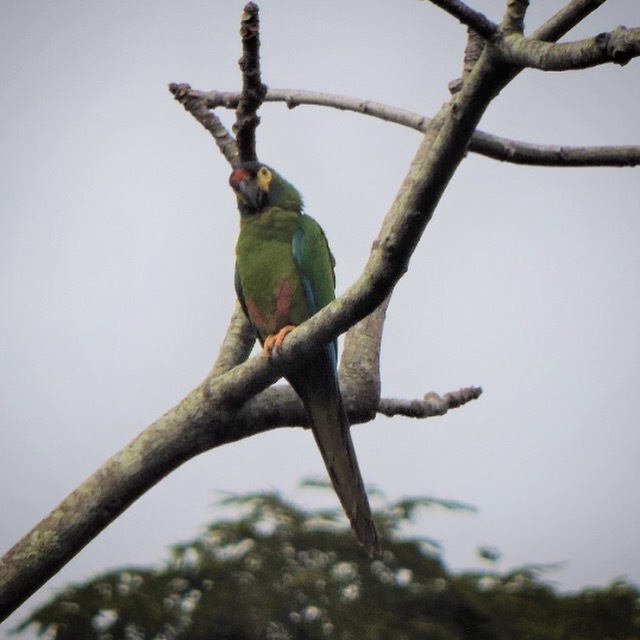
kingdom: Animalia
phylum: Chordata
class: Aves
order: Psittaciformes
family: Psittacidae
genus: Primolius
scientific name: Primolius maracana
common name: Blue-winged macaw
